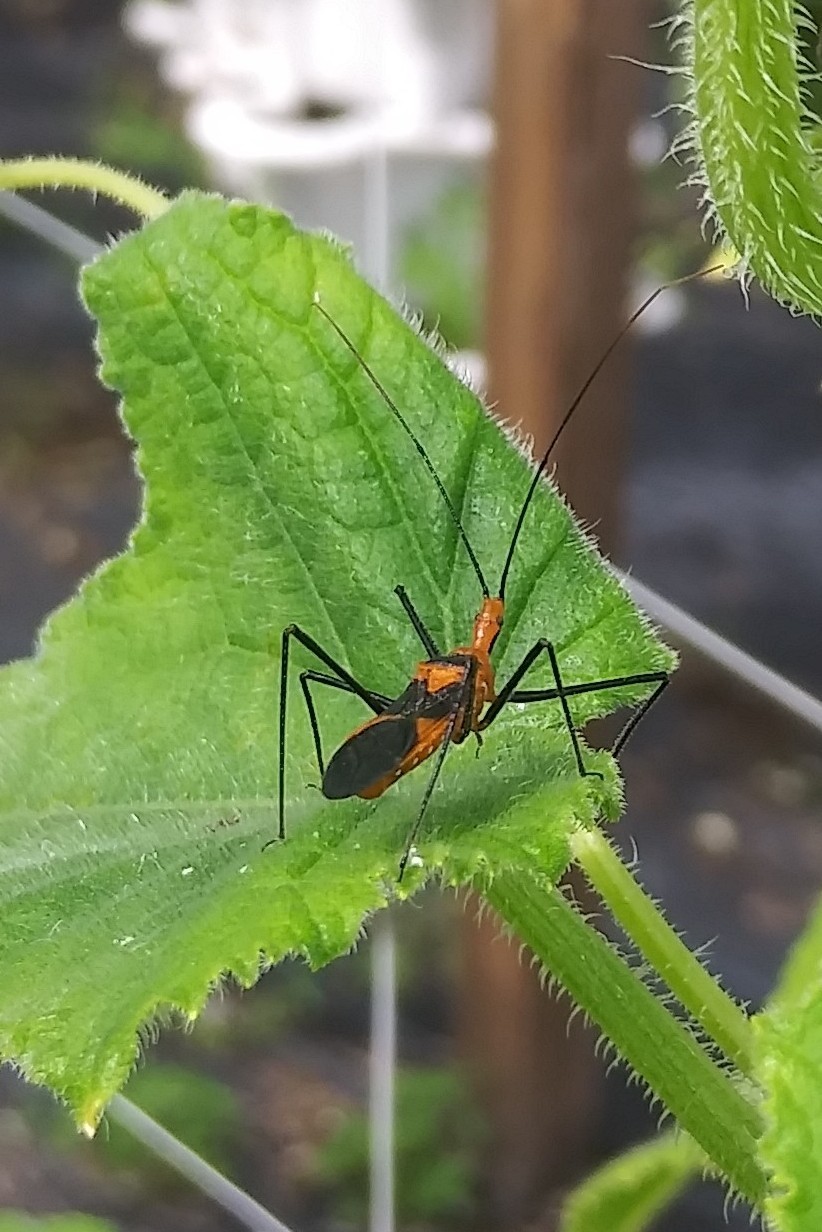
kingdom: Animalia
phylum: Arthropoda
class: Insecta
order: Hemiptera
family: Reduviidae
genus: Zelus
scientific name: Zelus longipes
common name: Milkweed assassin bug
